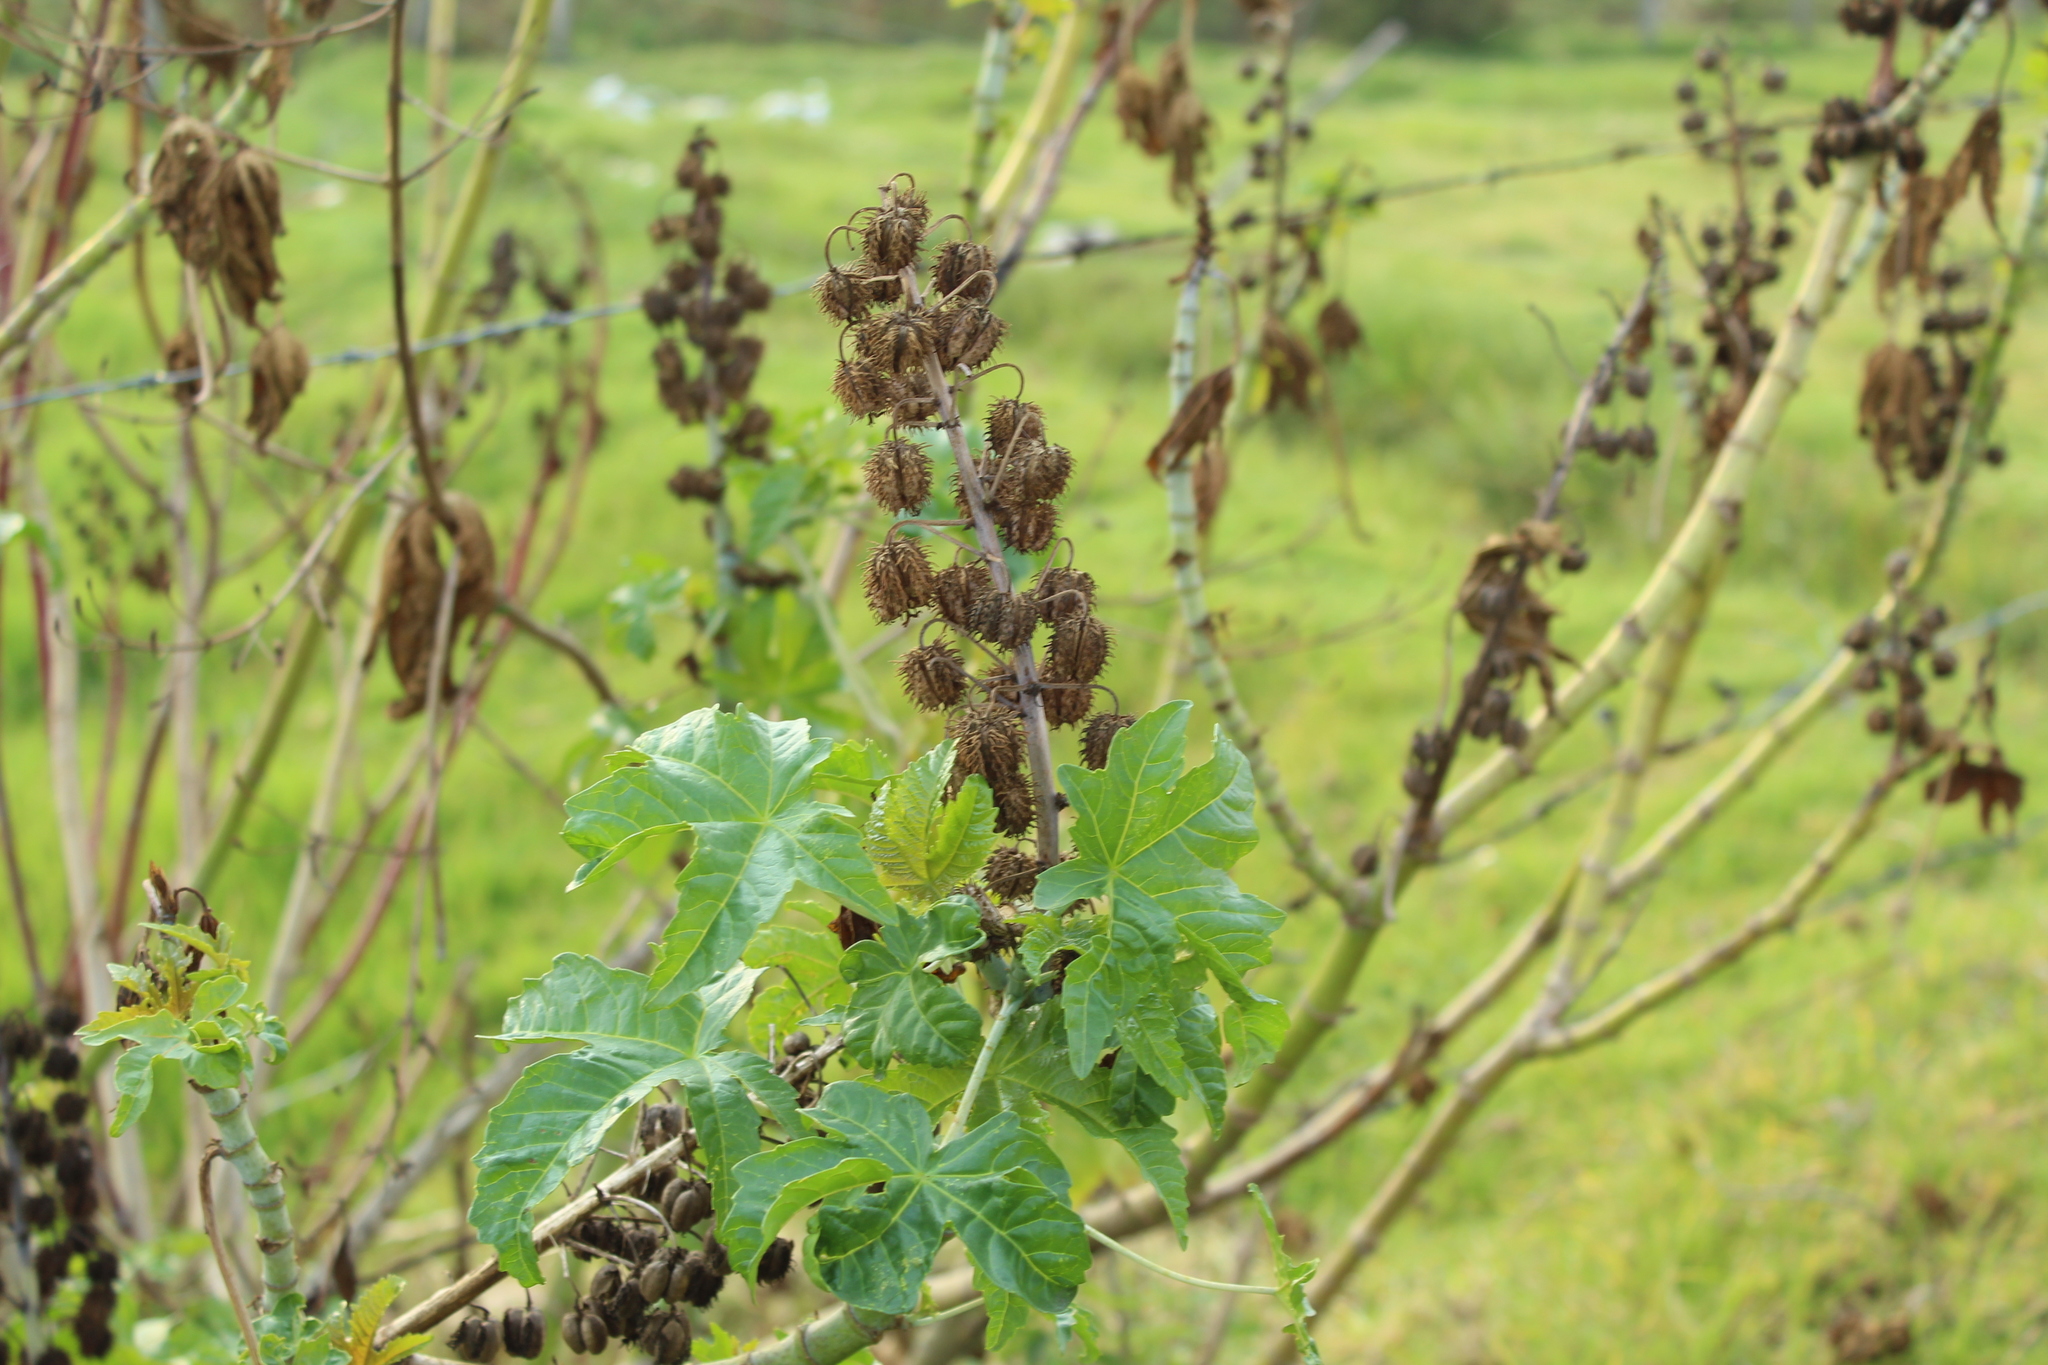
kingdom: Plantae
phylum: Tracheophyta
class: Magnoliopsida
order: Malpighiales
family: Euphorbiaceae
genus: Ricinus
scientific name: Ricinus communis
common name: Castor-oil-plant
